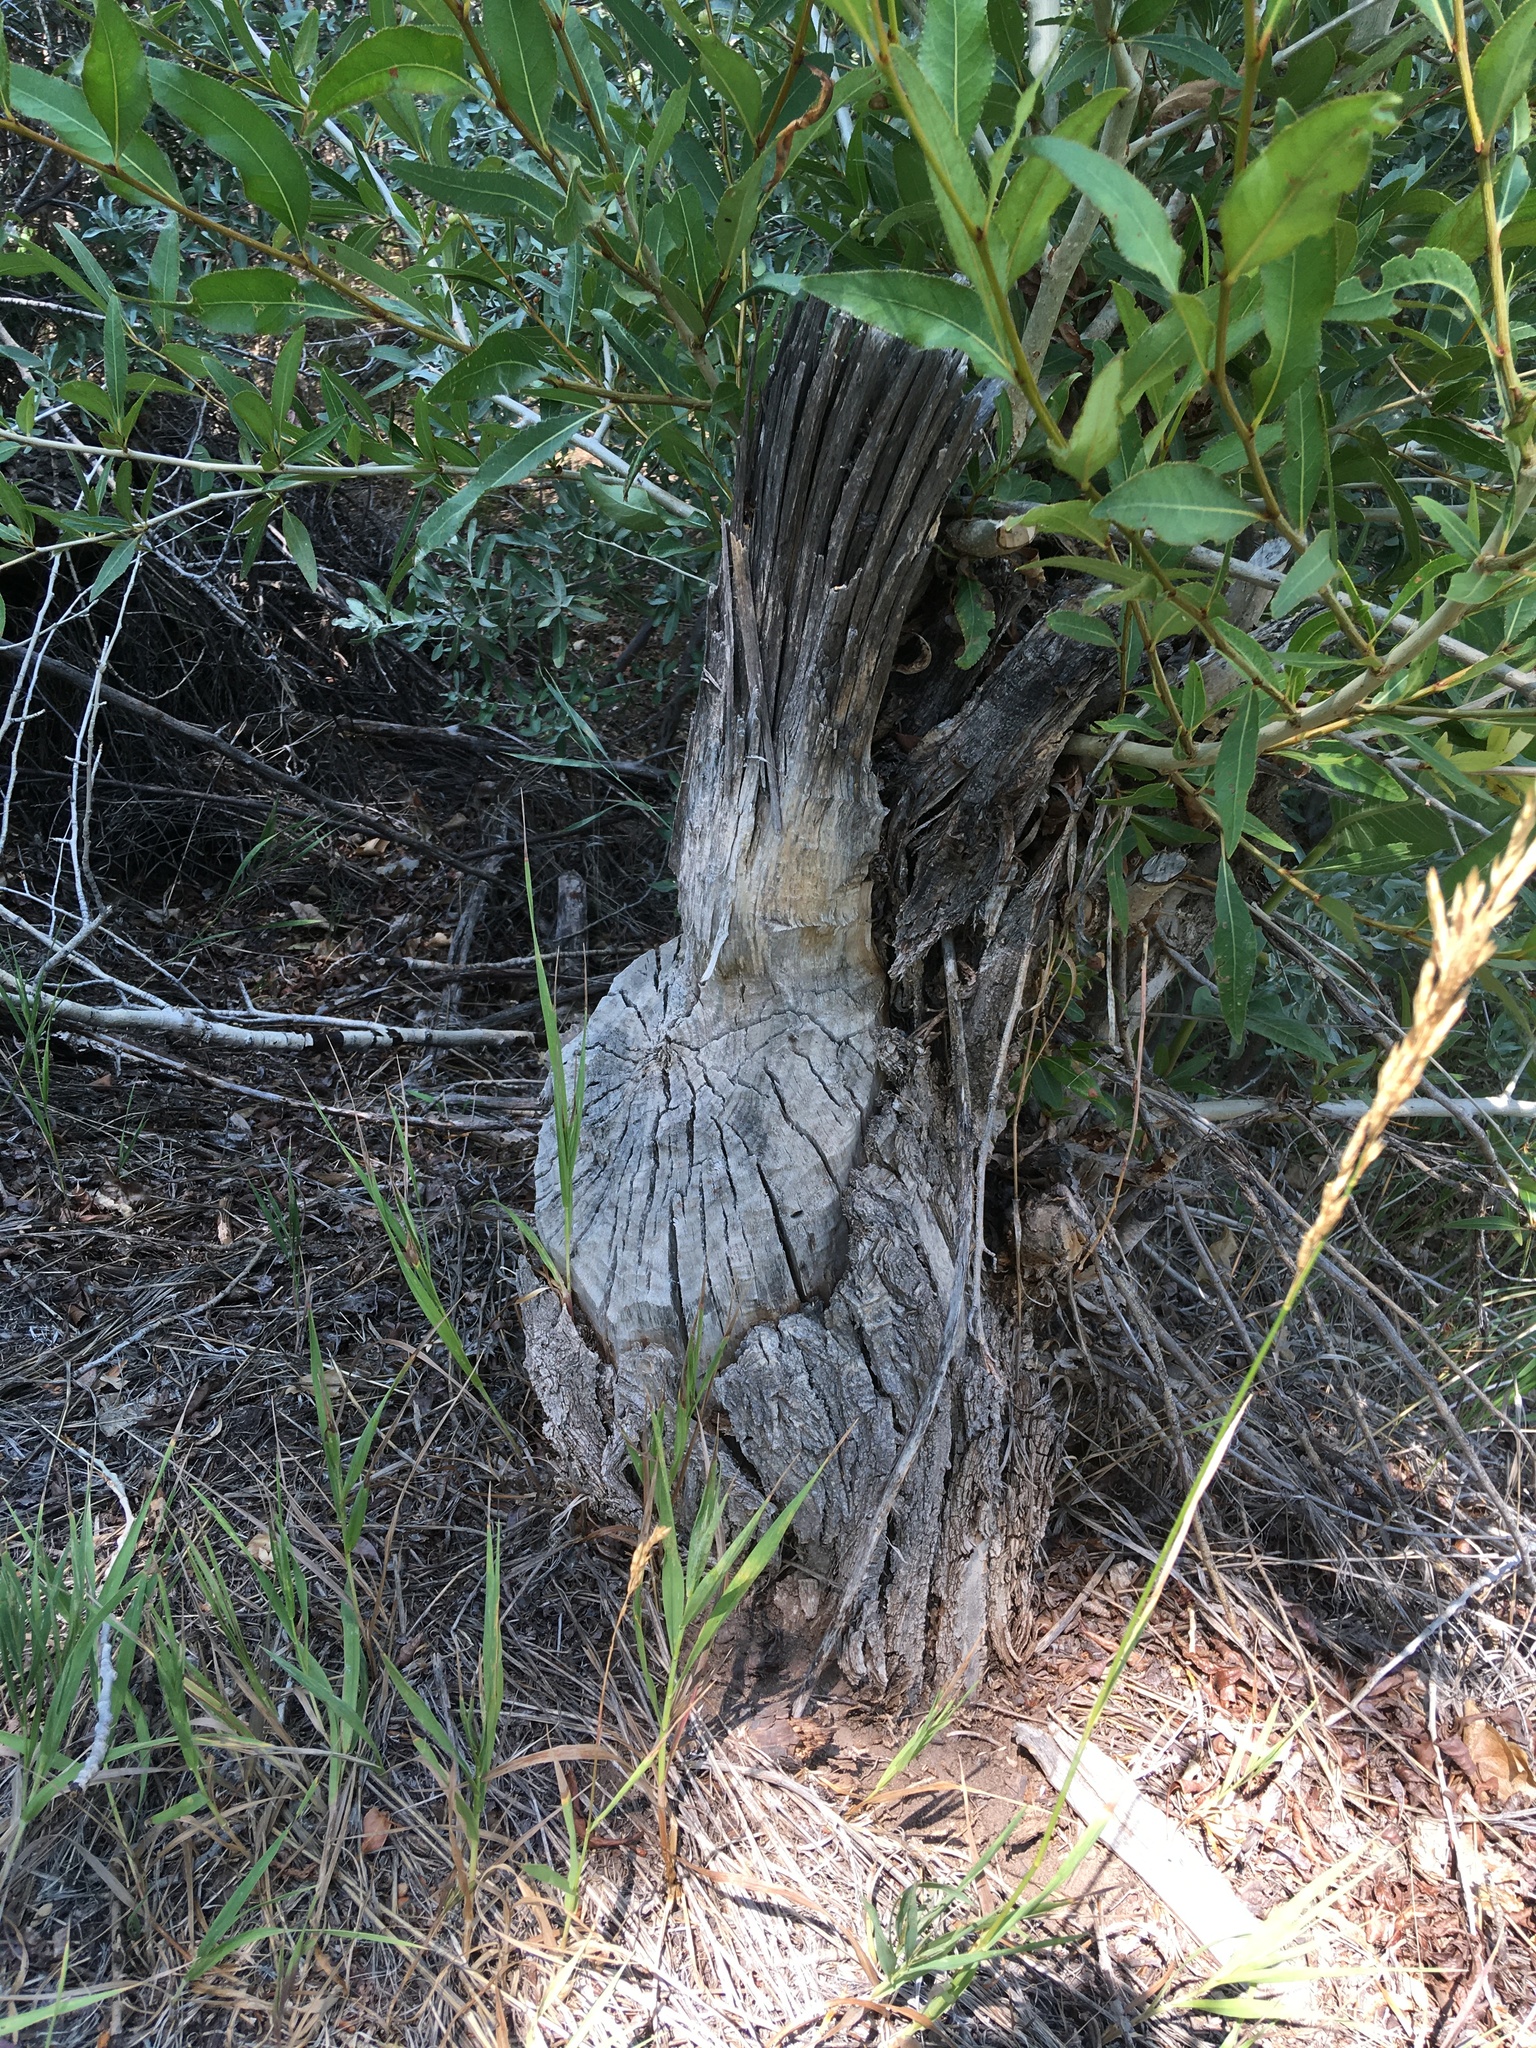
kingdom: Animalia
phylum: Chordata
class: Mammalia
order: Rodentia
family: Castoridae
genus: Castor
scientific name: Castor canadensis
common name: American beaver
